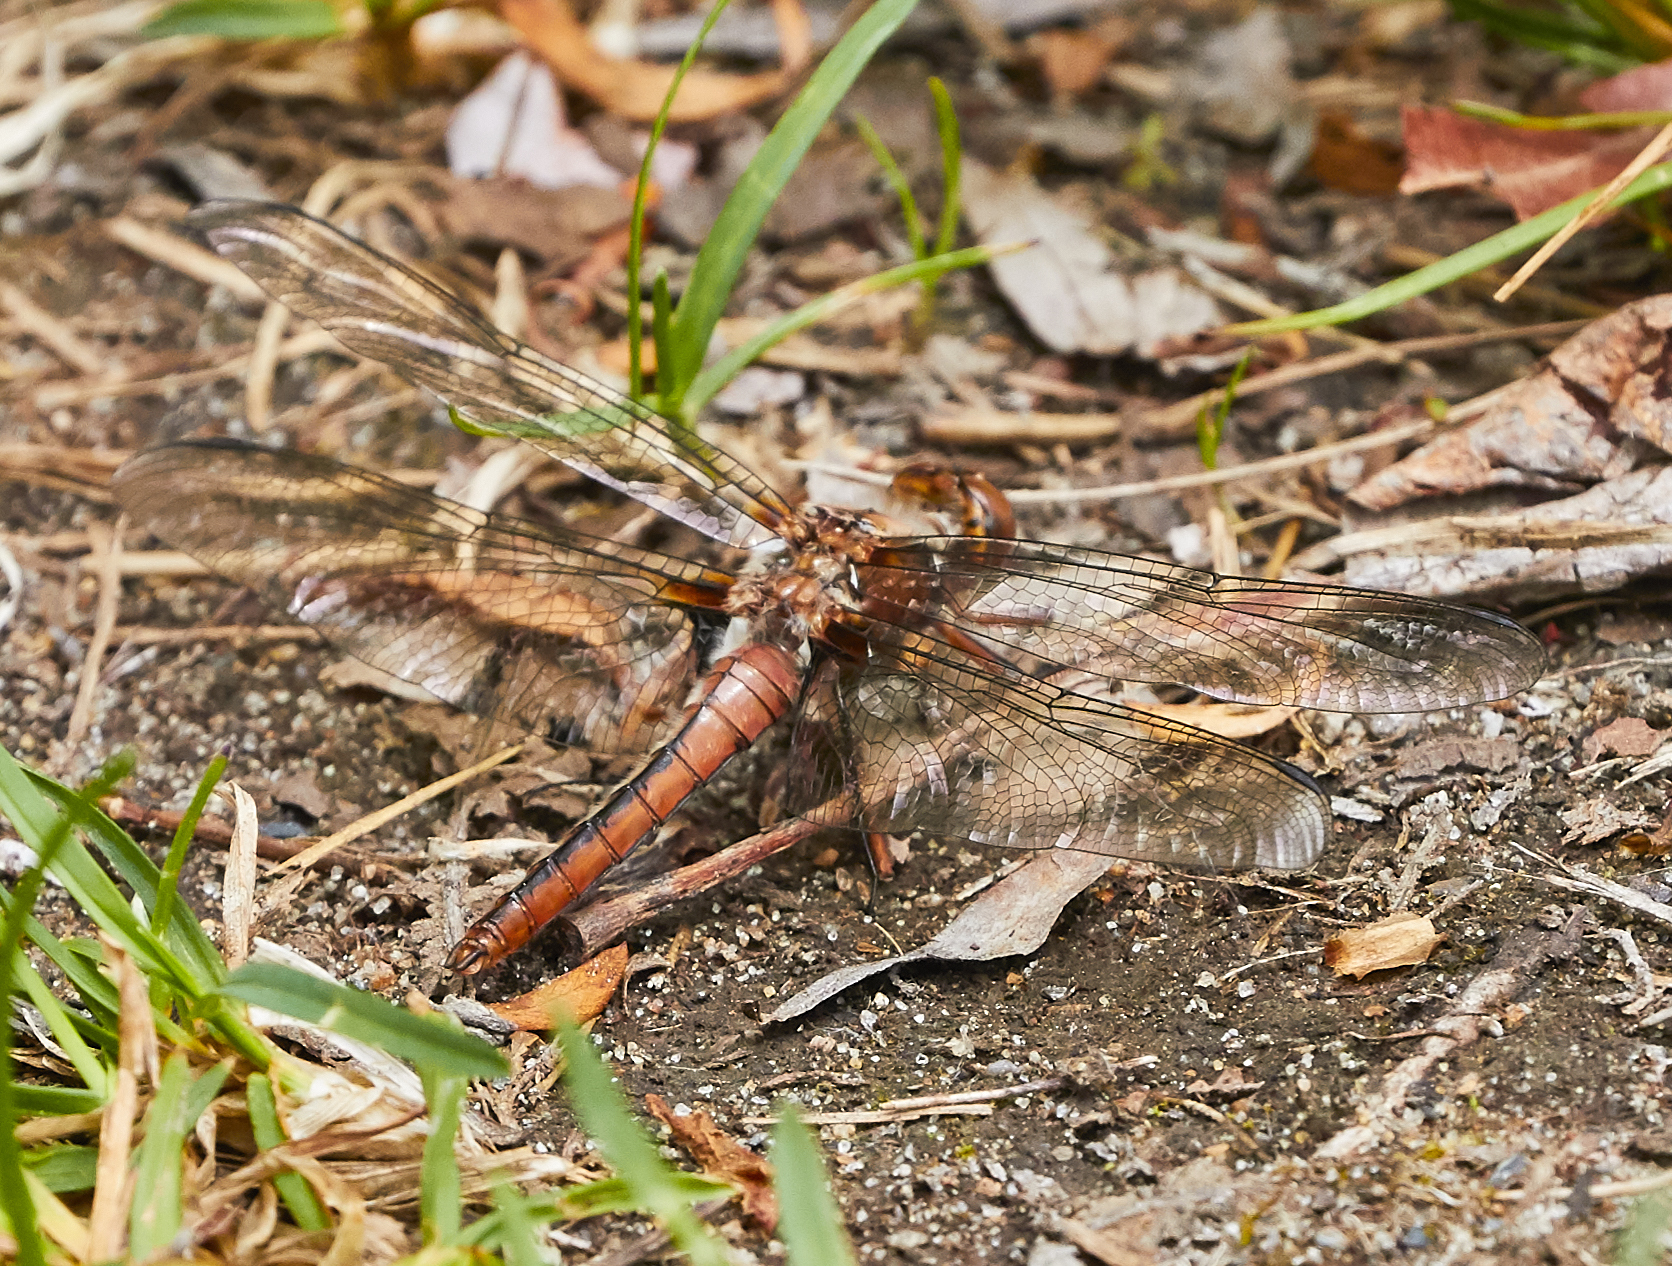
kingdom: Animalia
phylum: Arthropoda
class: Insecta
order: Odonata
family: Libellulidae
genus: Ladona
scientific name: Ladona julia
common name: Chalk-fronted corporal
